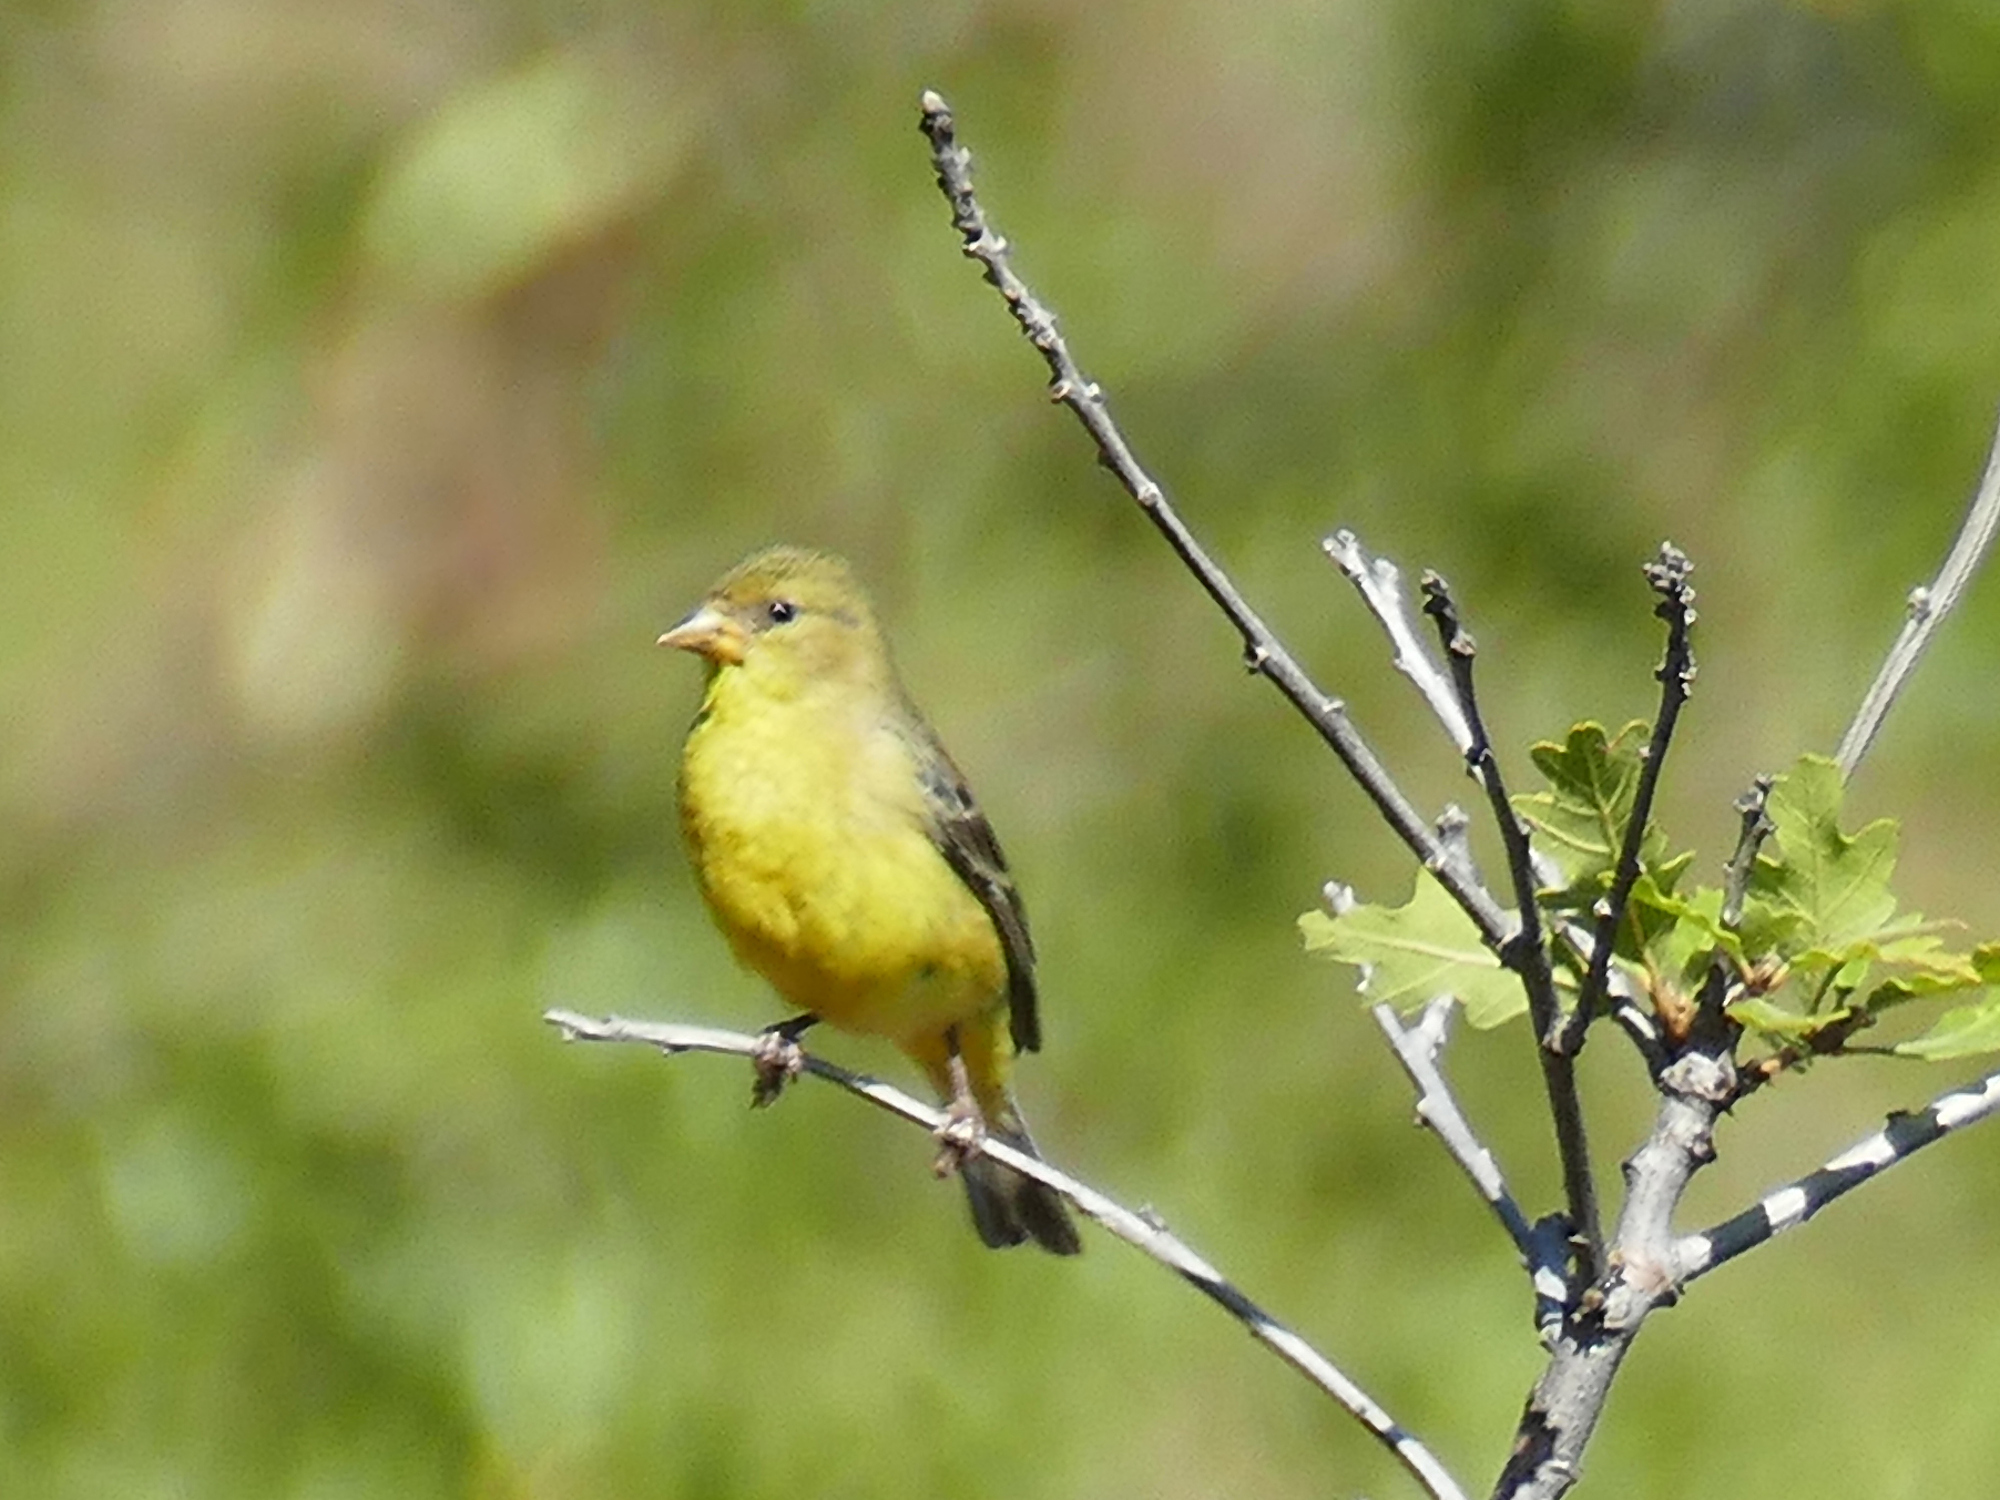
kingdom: Animalia
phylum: Chordata
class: Aves
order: Passeriformes
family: Fringillidae
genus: Spinus
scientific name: Spinus psaltria
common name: Lesser goldfinch
